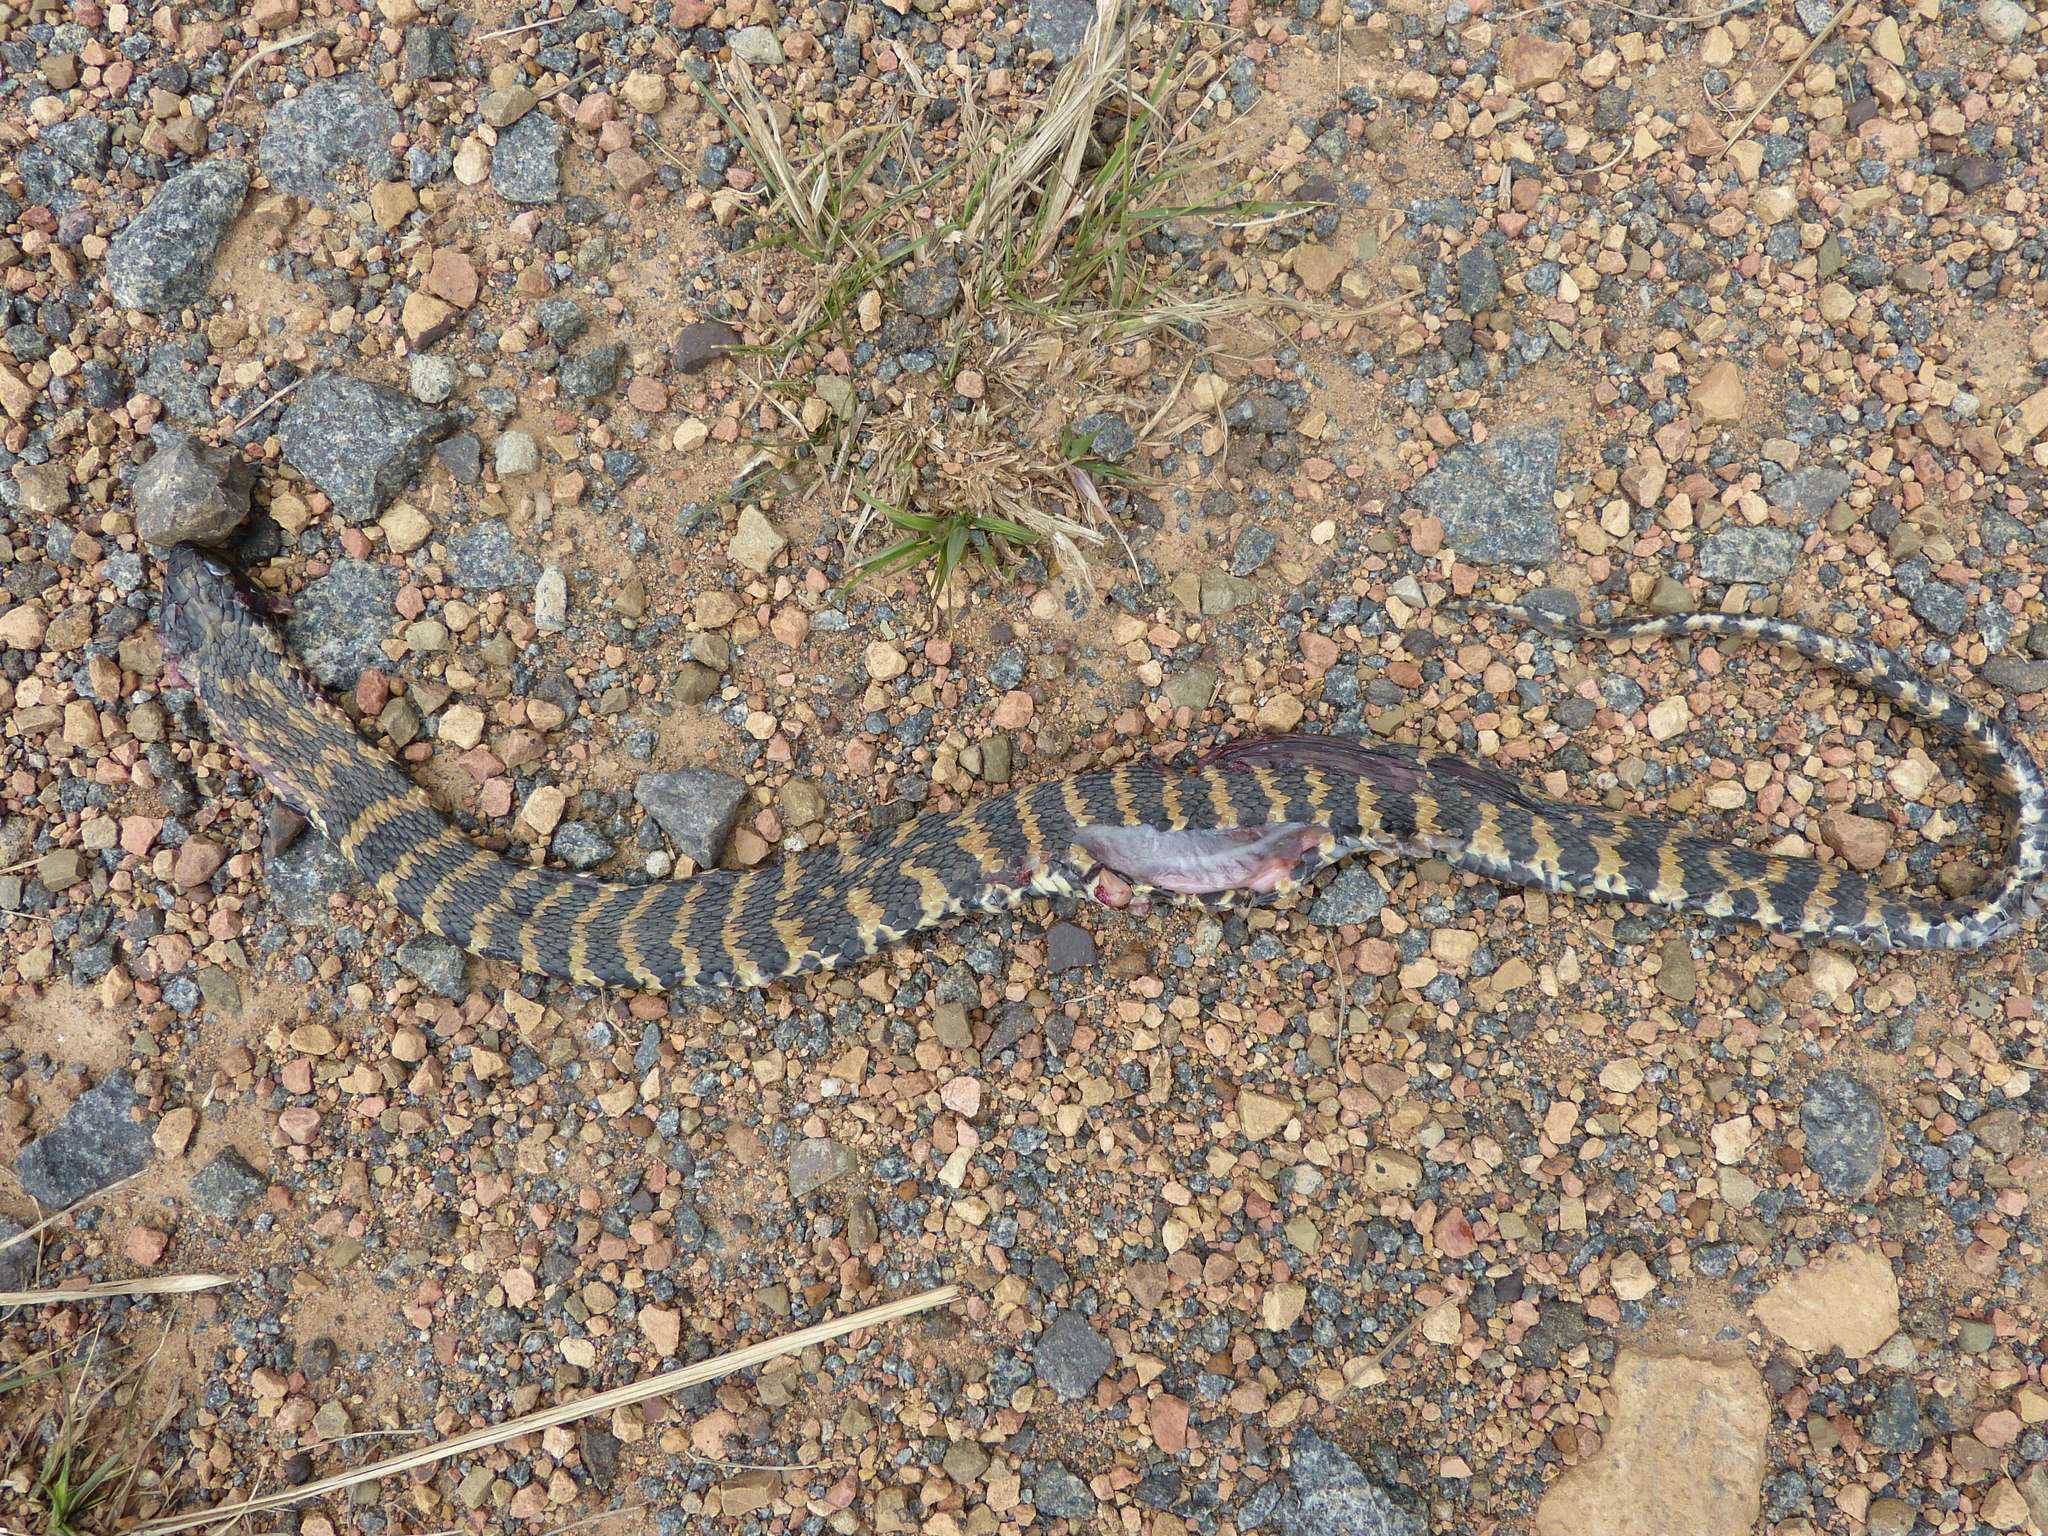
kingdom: Animalia
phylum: Chordata
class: Squamata
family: Elapidae
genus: Hemachatus
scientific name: Hemachatus haemachatus
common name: Ring-necked spitting cobra
